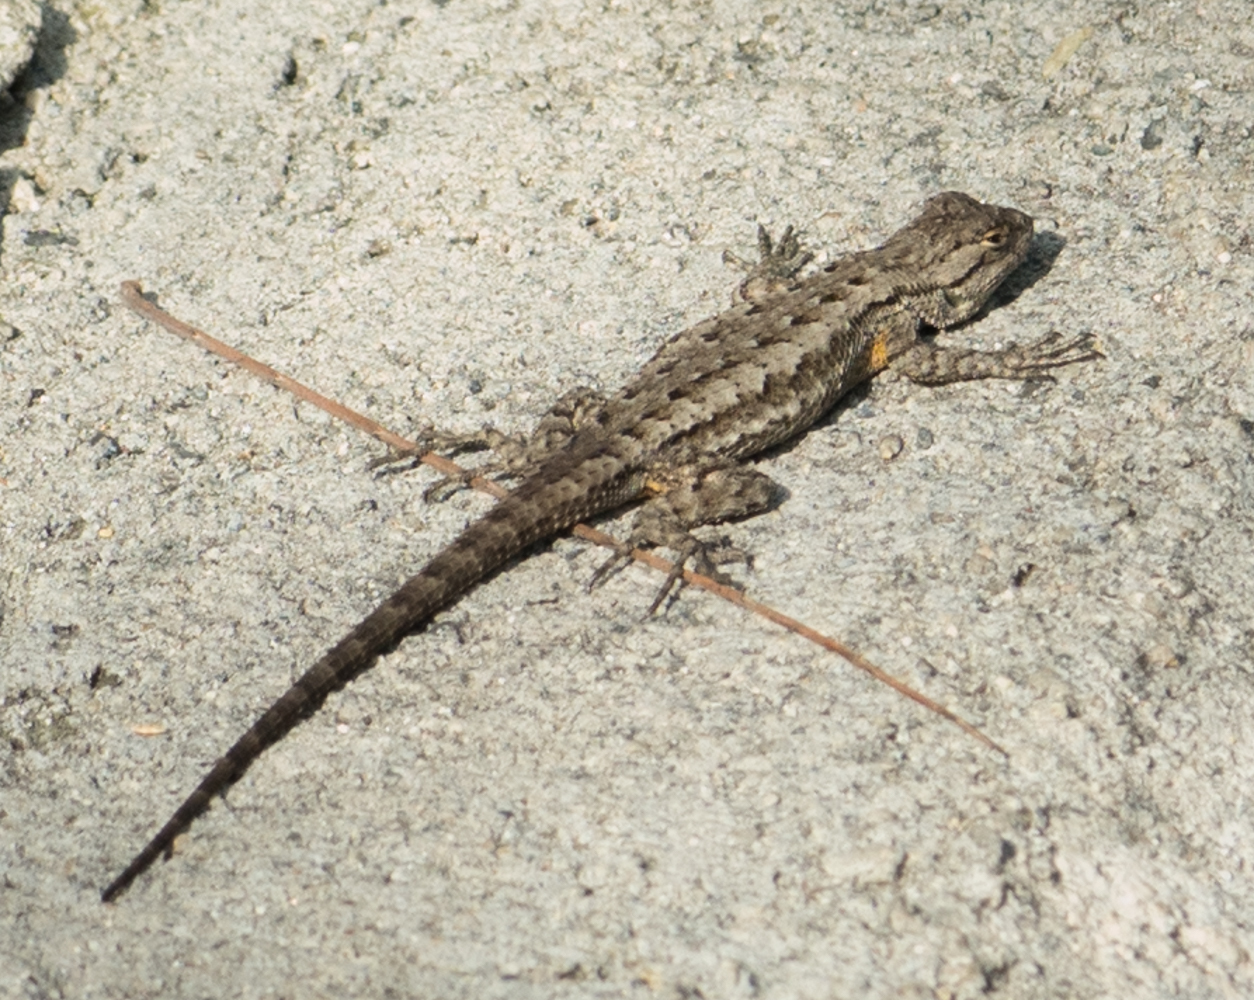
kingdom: Animalia
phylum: Chordata
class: Squamata
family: Phrynosomatidae
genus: Sceloporus
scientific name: Sceloporus occidentalis
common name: Western fence lizard
